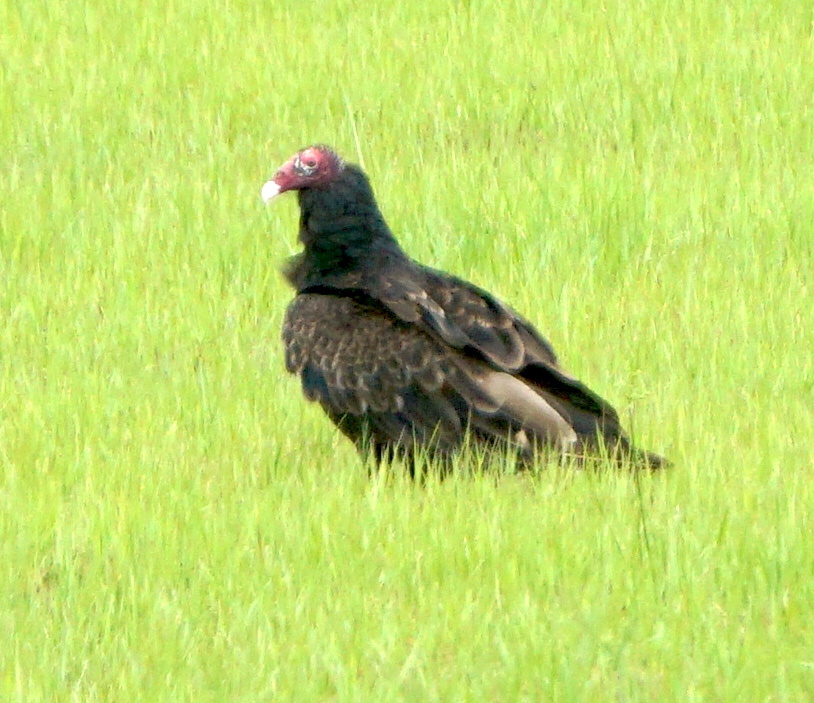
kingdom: Animalia
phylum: Chordata
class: Aves
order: Accipitriformes
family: Cathartidae
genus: Cathartes
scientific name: Cathartes aura
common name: Turkey vulture
